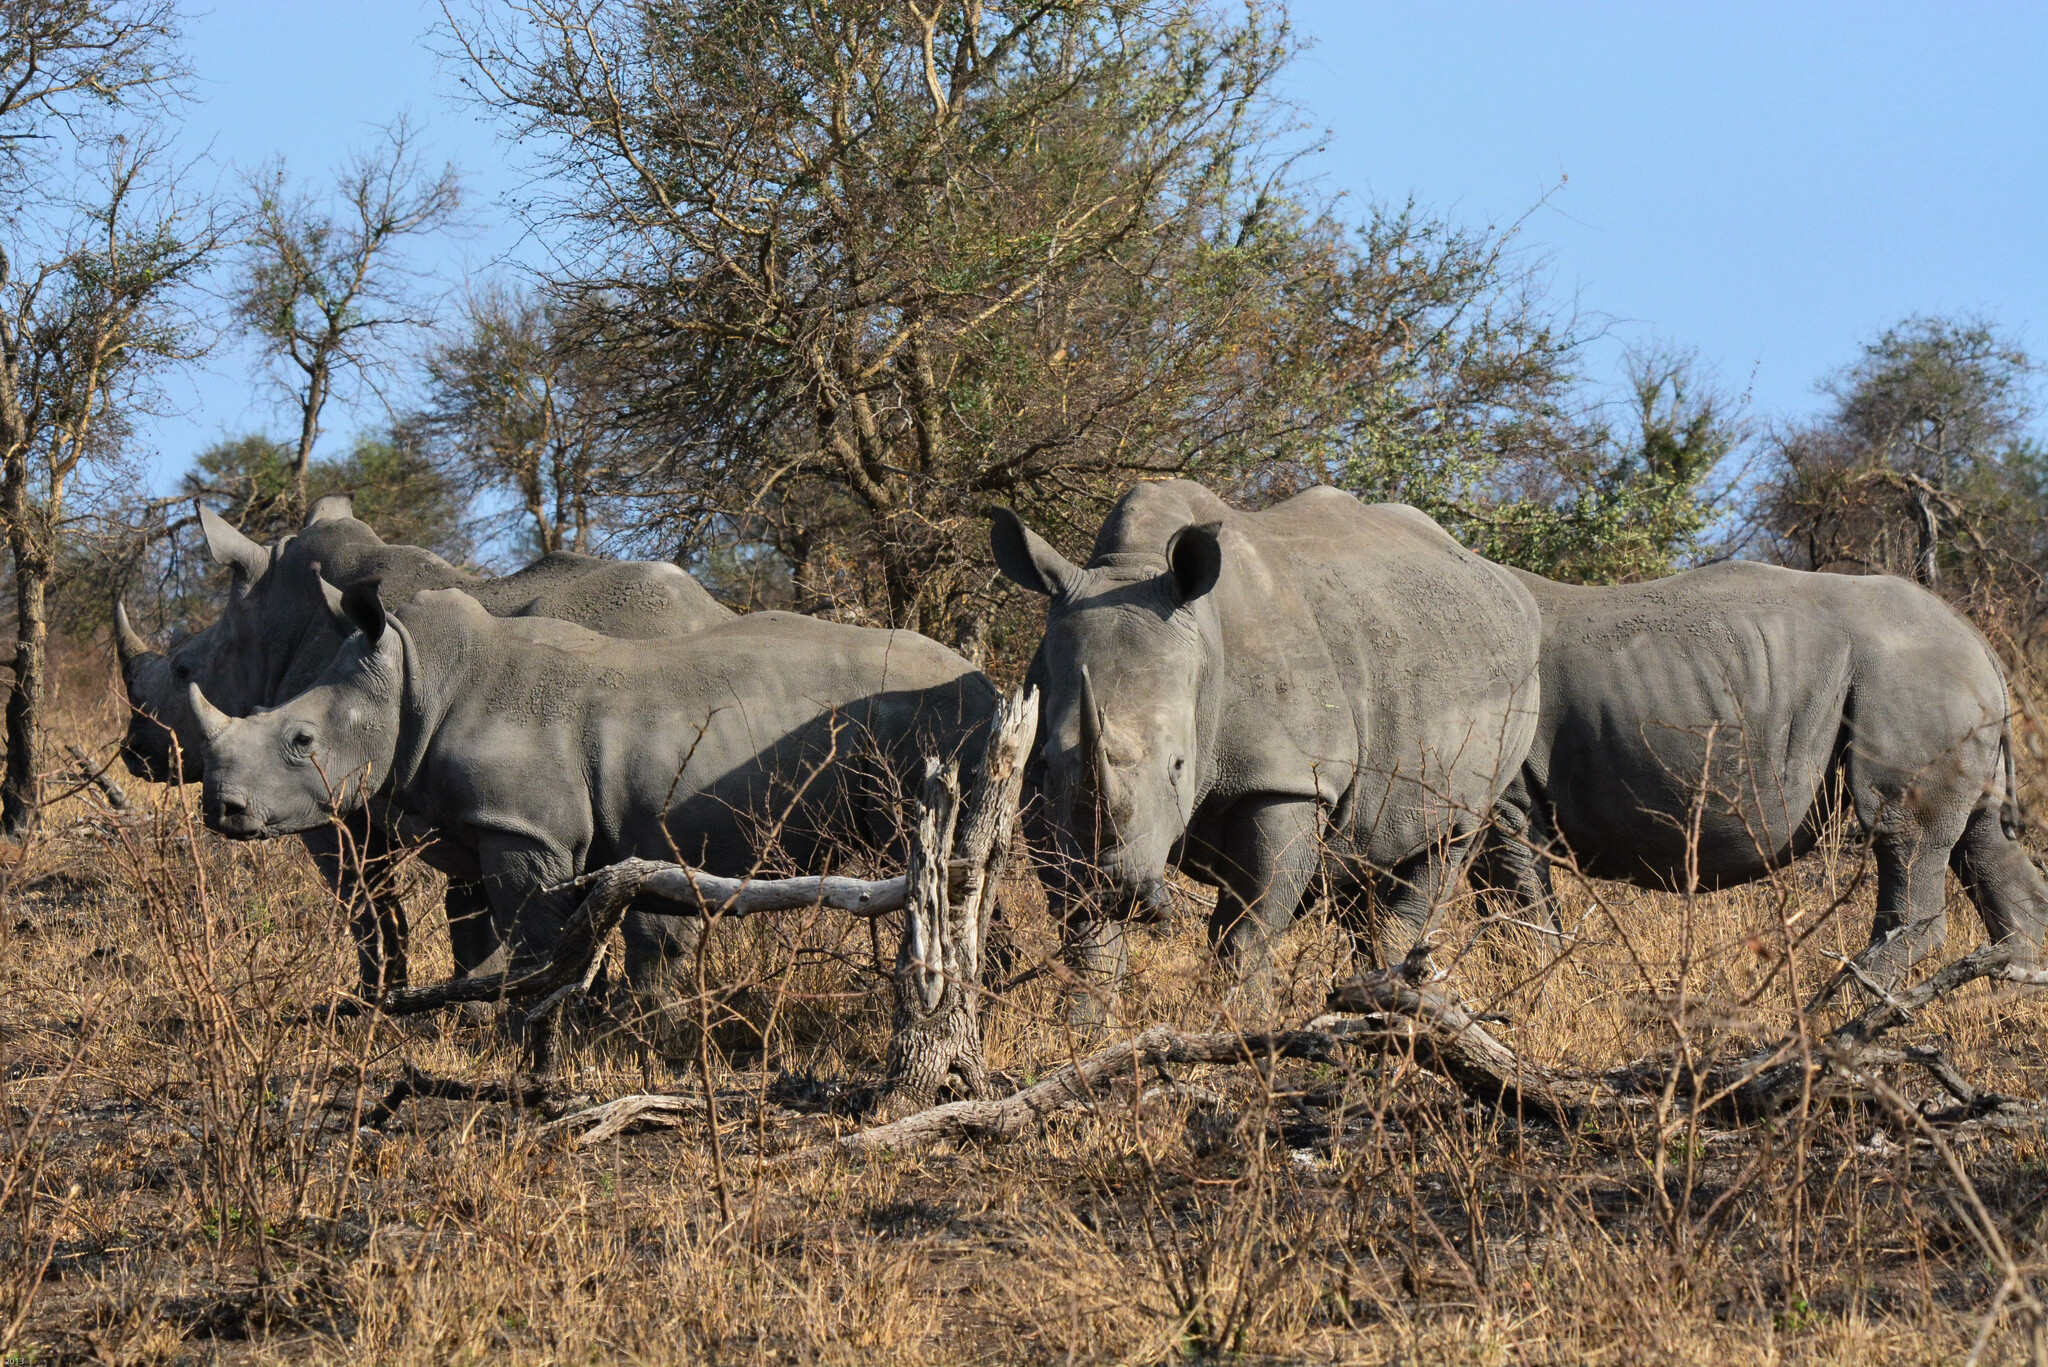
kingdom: Animalia
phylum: Chordata
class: Mammalia
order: Perissodactyla
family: Rhinocerotidae
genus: Ceratotherium
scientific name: Ceratotherium simum
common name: White rhinoceros
